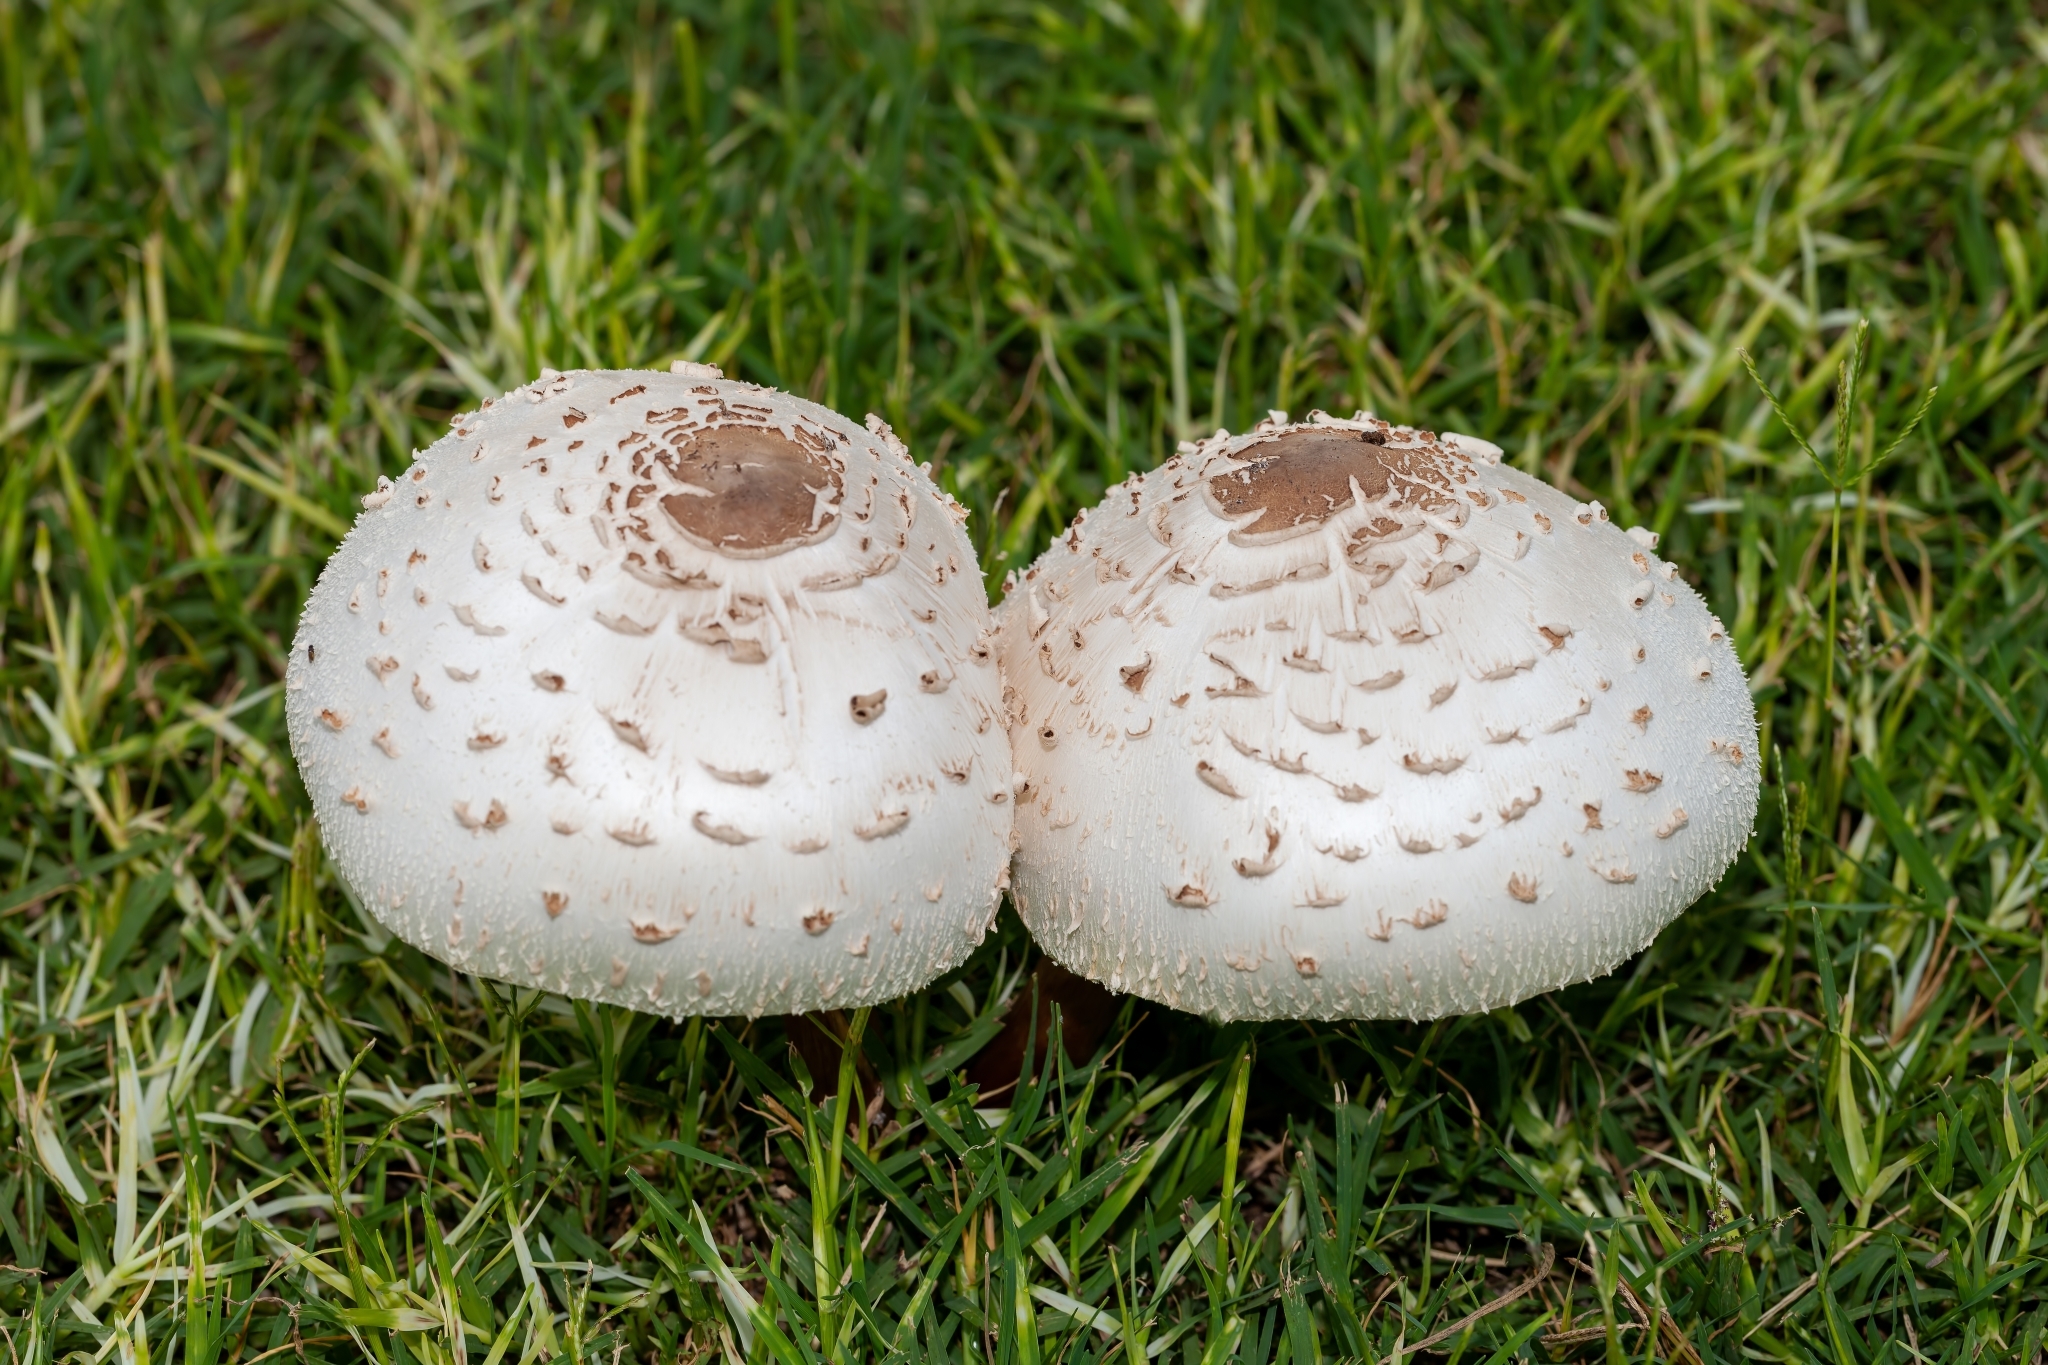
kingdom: Fungi
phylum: Basidiomycota
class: Agaricomycetes
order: Agaricales
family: Agaricaceae
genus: Chlorophyllum
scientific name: Chlorophyllum molybdites
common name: False parasol
